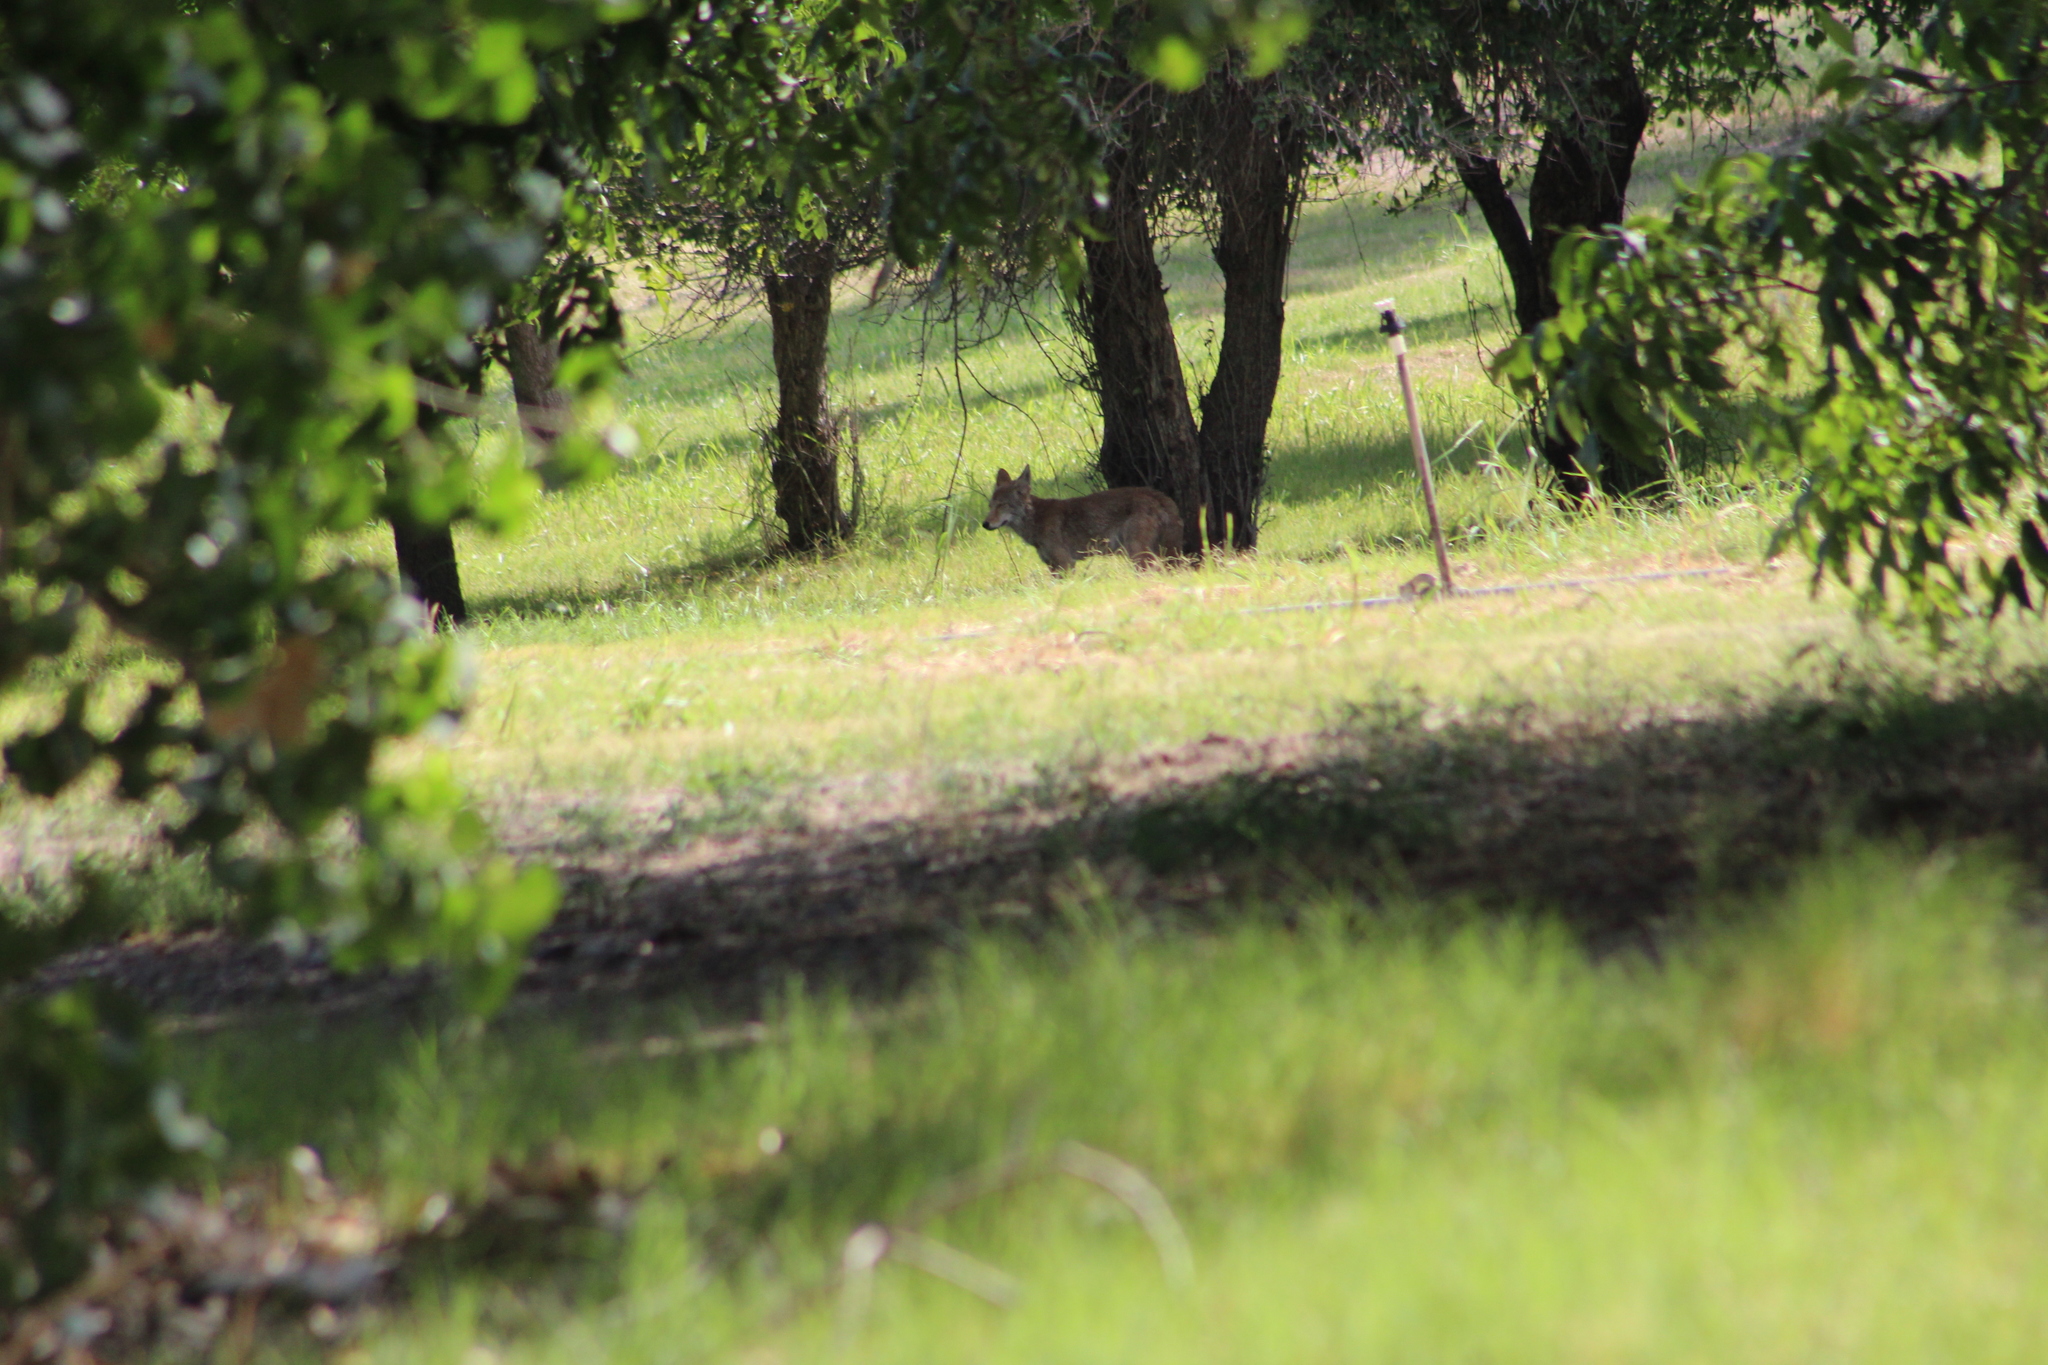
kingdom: Animalia
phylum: Chordata
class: Mammalia
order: Carnivora
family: Canidae
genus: Canis
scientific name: Canis latrans
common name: Coyote
